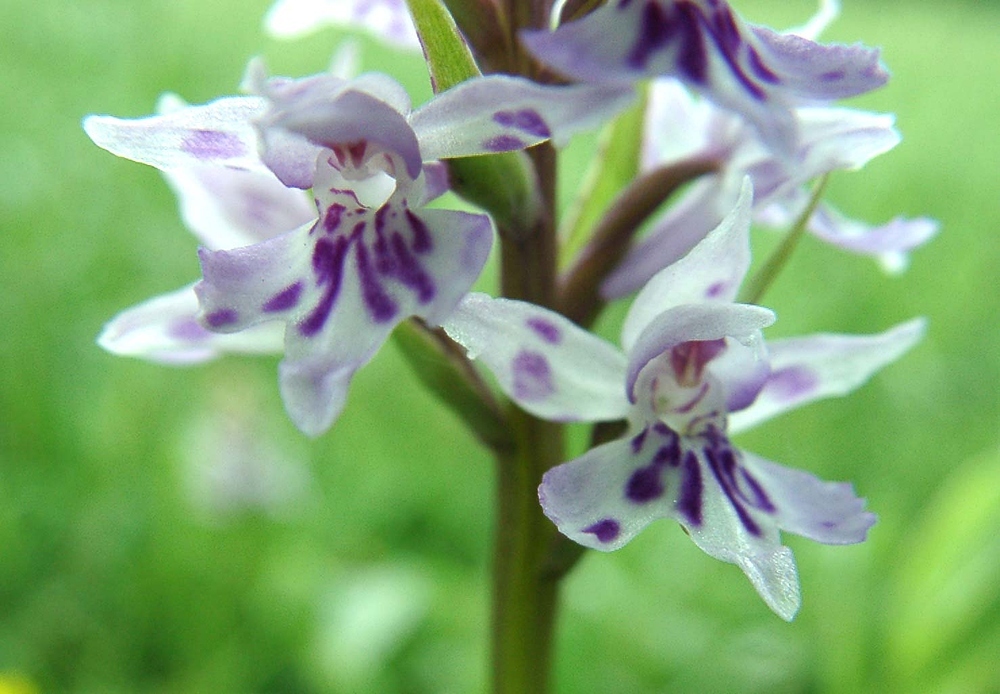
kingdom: Plantae
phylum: Tracheophyta
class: Liliopsida
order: Asparagales
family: Orchidaceae
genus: Dactylorhiza
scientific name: Dactylorhiza maculata
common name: Heath spotted-orchid
